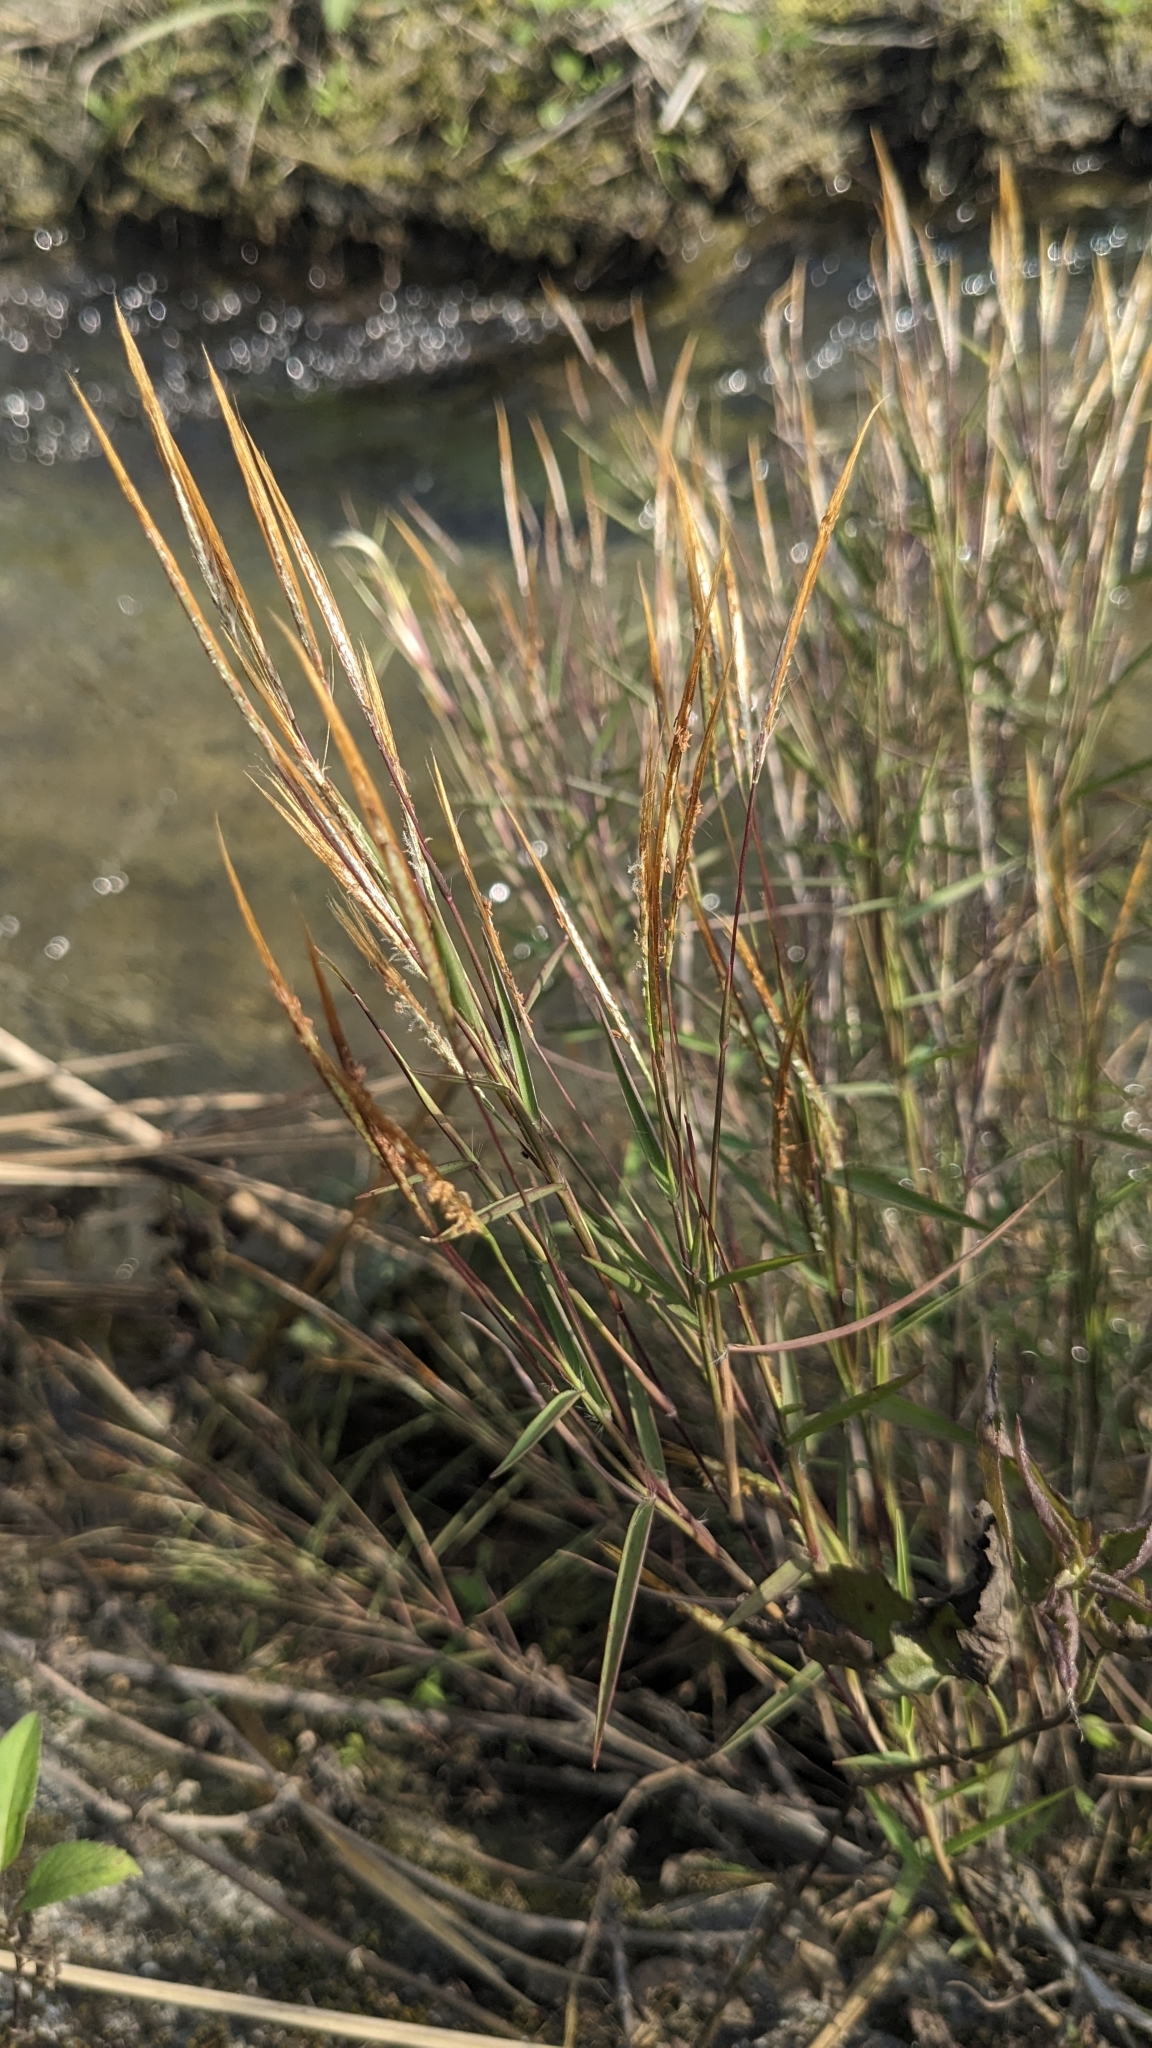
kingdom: Plantae
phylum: Tracheophyta
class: Liliopsida
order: Poales
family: Poaceae
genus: Pogonatherum
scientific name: Pogonatherum crinitum
